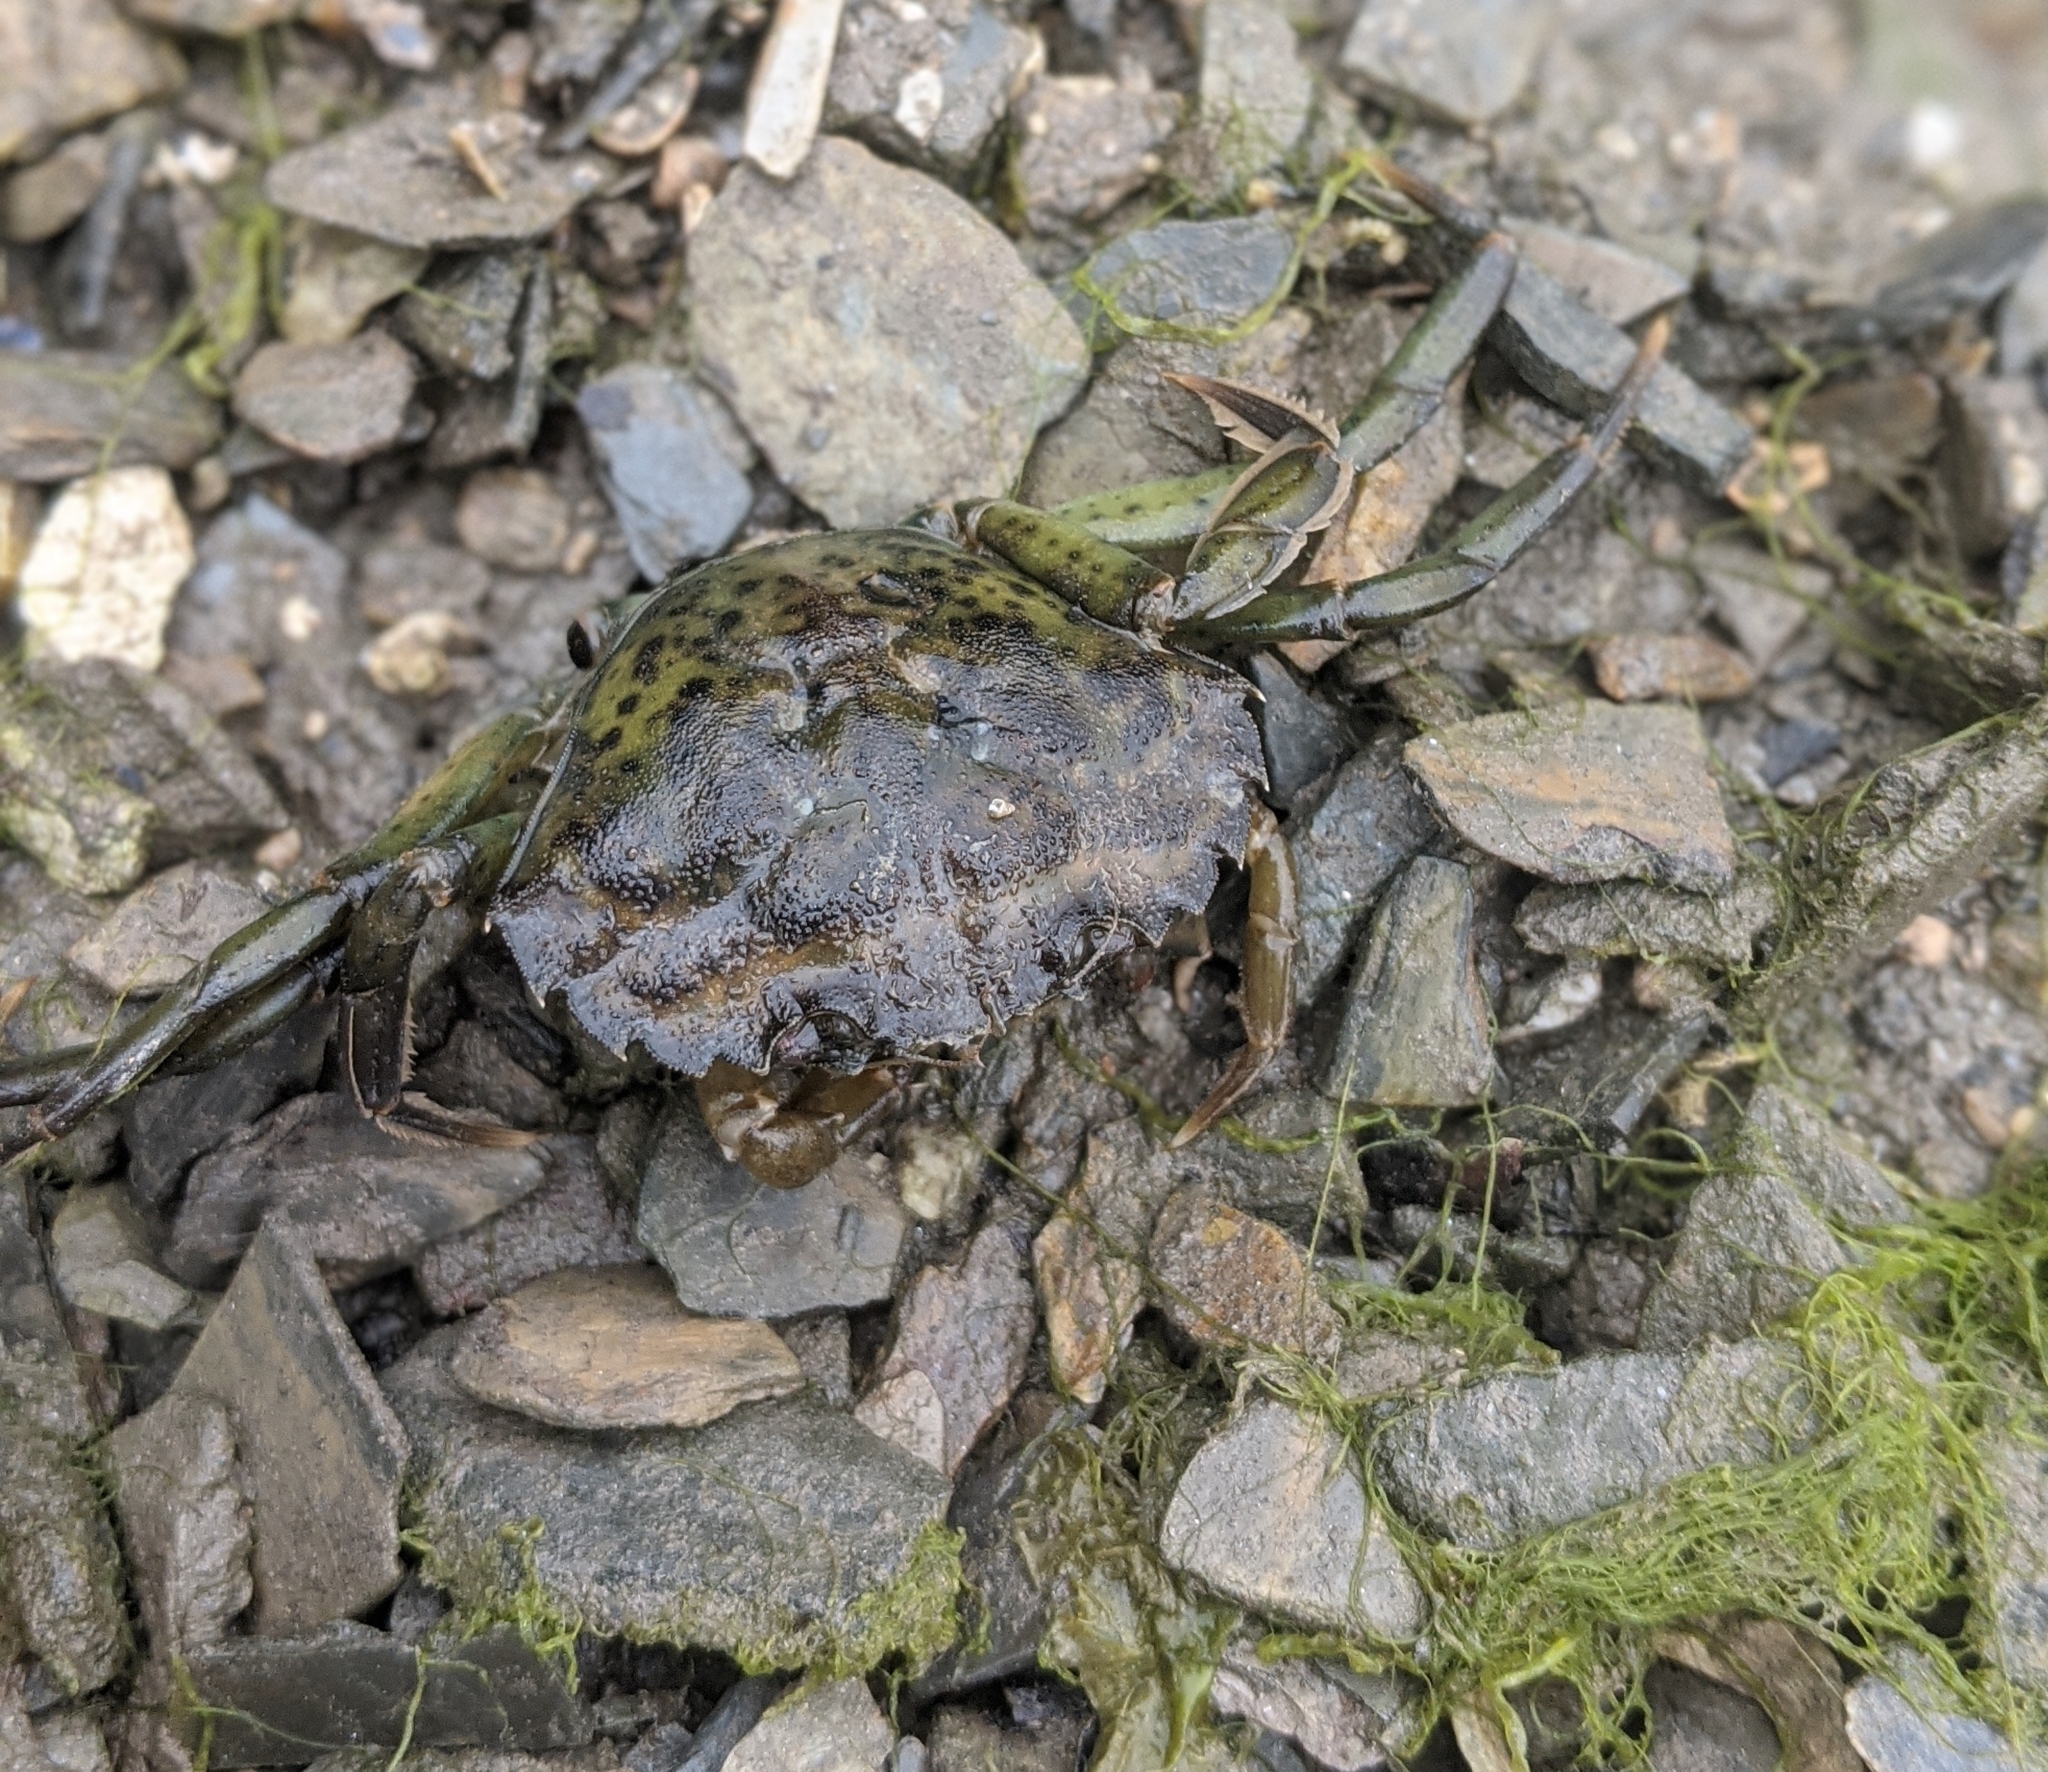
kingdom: Animalia
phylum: Arthropoda
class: Malacostraca
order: Decapoda
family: Carcinidae
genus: Carcinus
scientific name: Carcinus maenas
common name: European green crab
